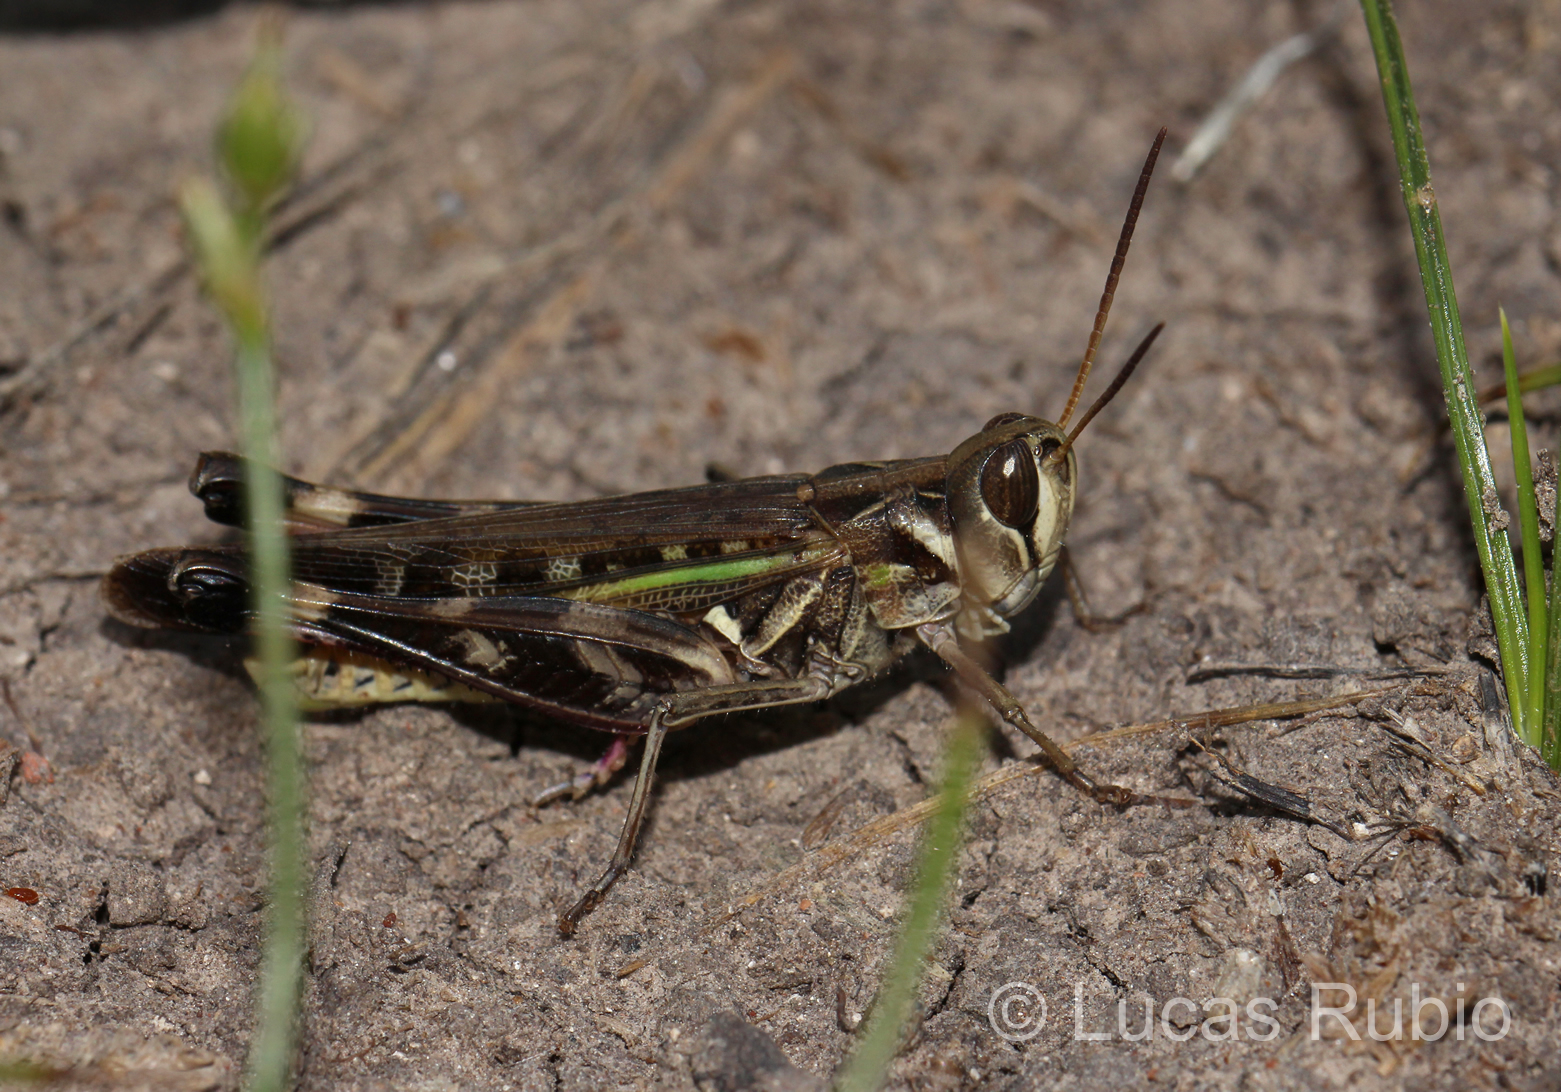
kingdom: Animalia
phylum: Arthropoda
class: Insecta
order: Orthoptera
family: Acrididae
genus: Rhammatocerus
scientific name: Rhammatocerus pictus
